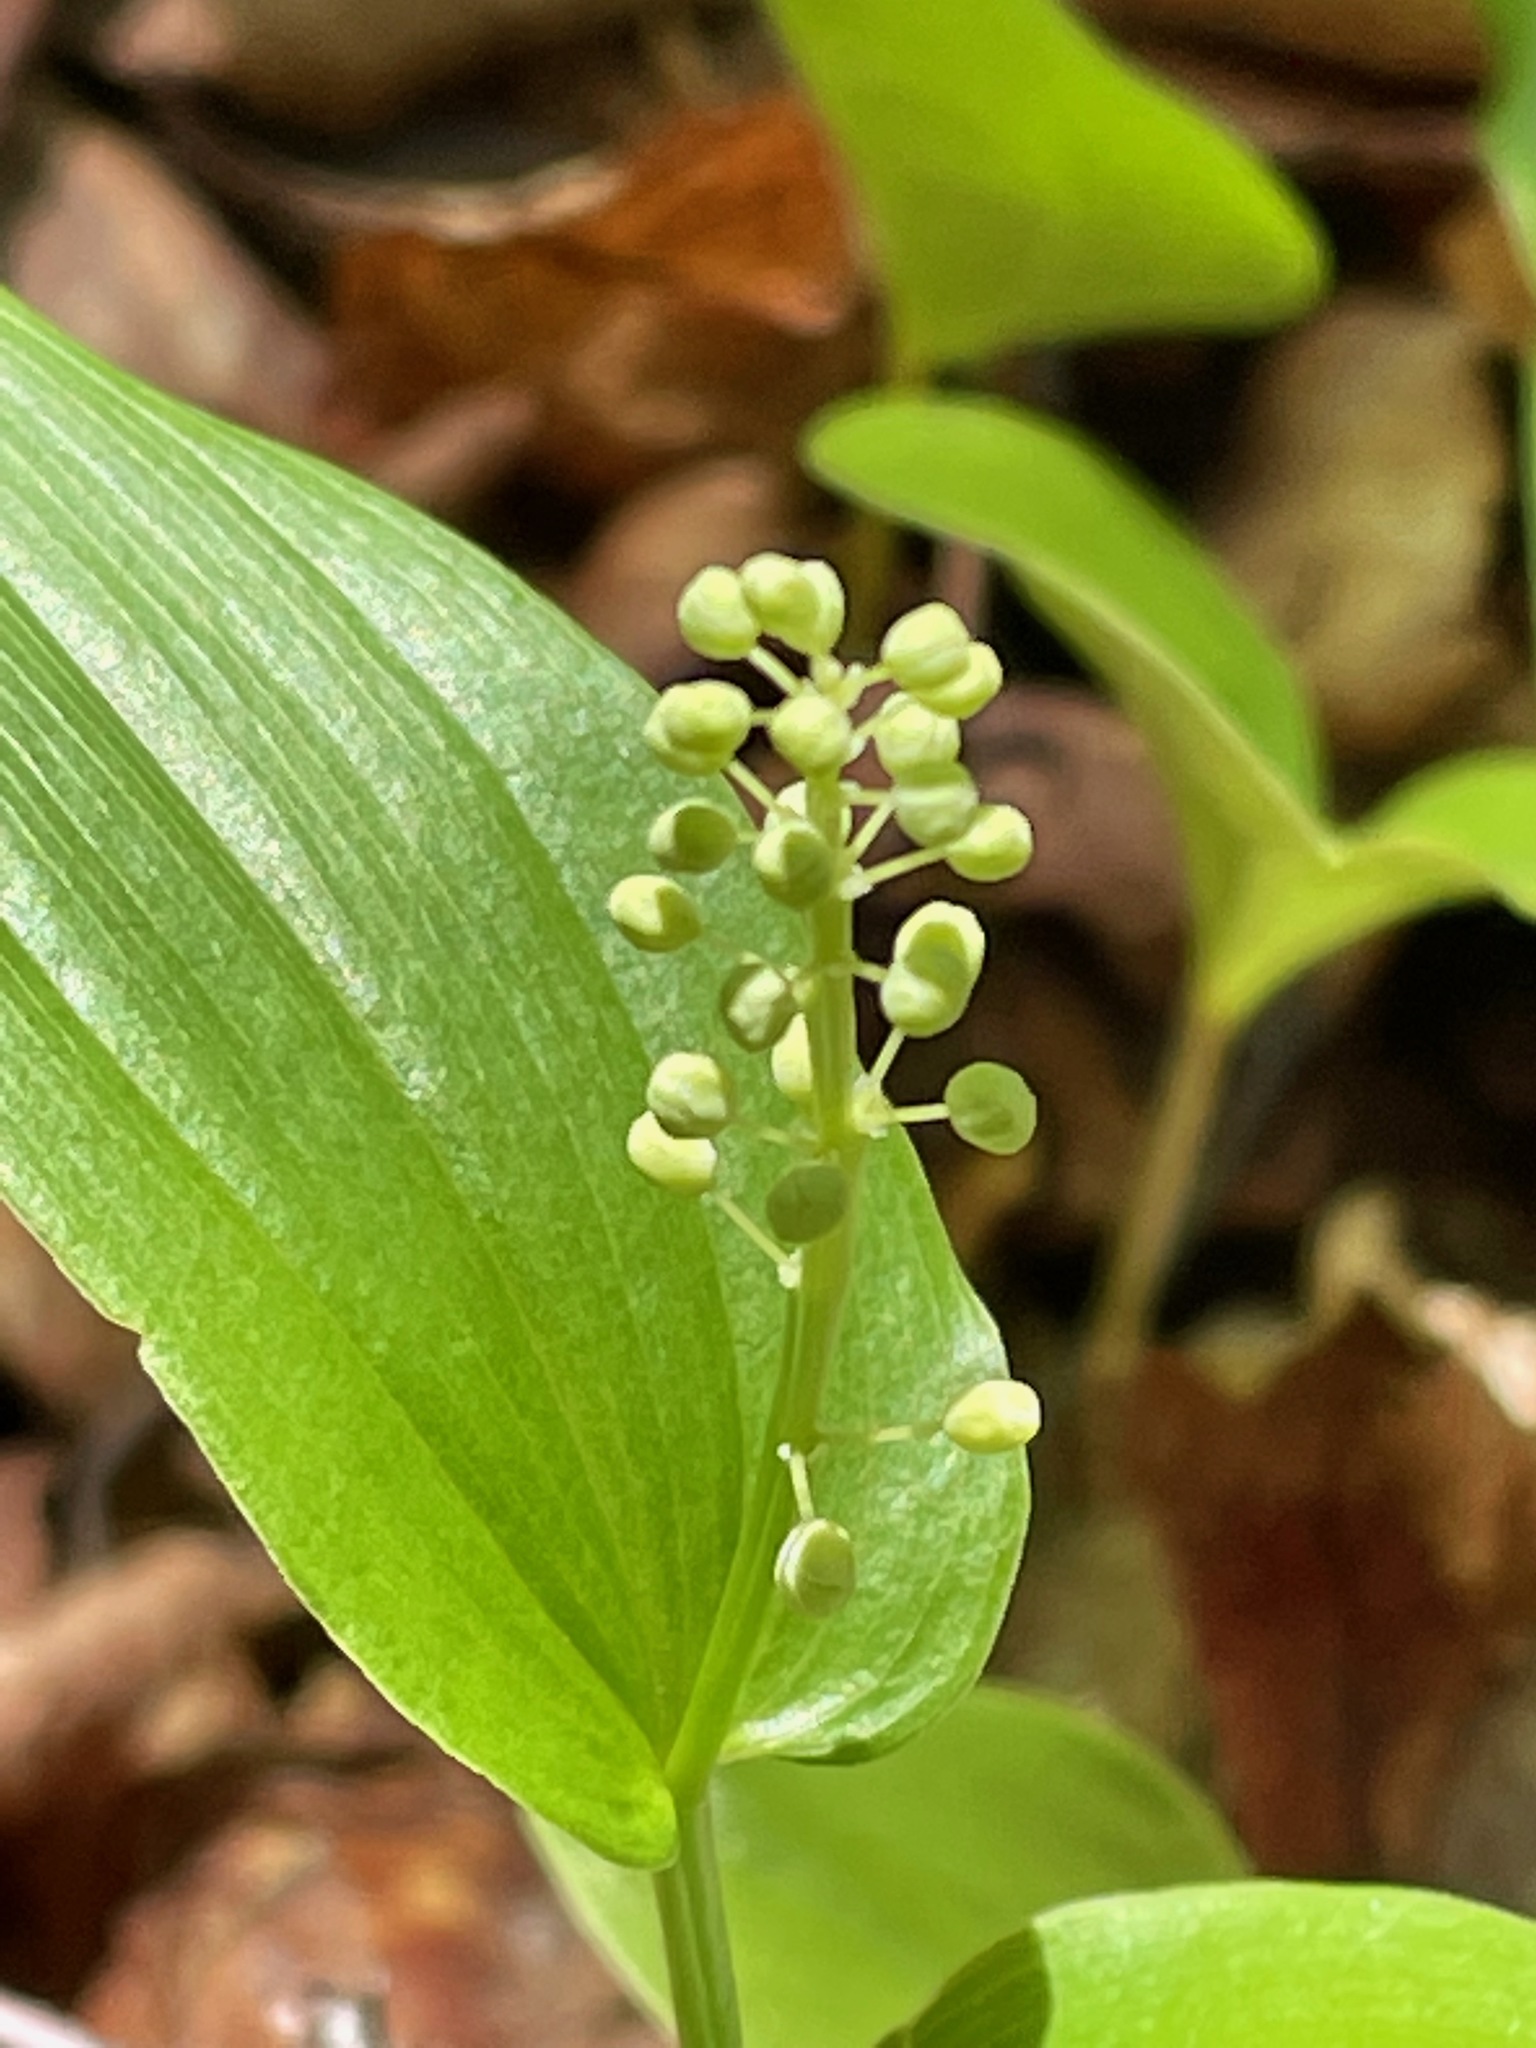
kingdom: Plantae
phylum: Tracheophyta
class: Liliopsida
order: Asparagales
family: Asparagaceae
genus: Maianthemum
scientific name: Maianthemum canadense
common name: False lily-of-the-valley
